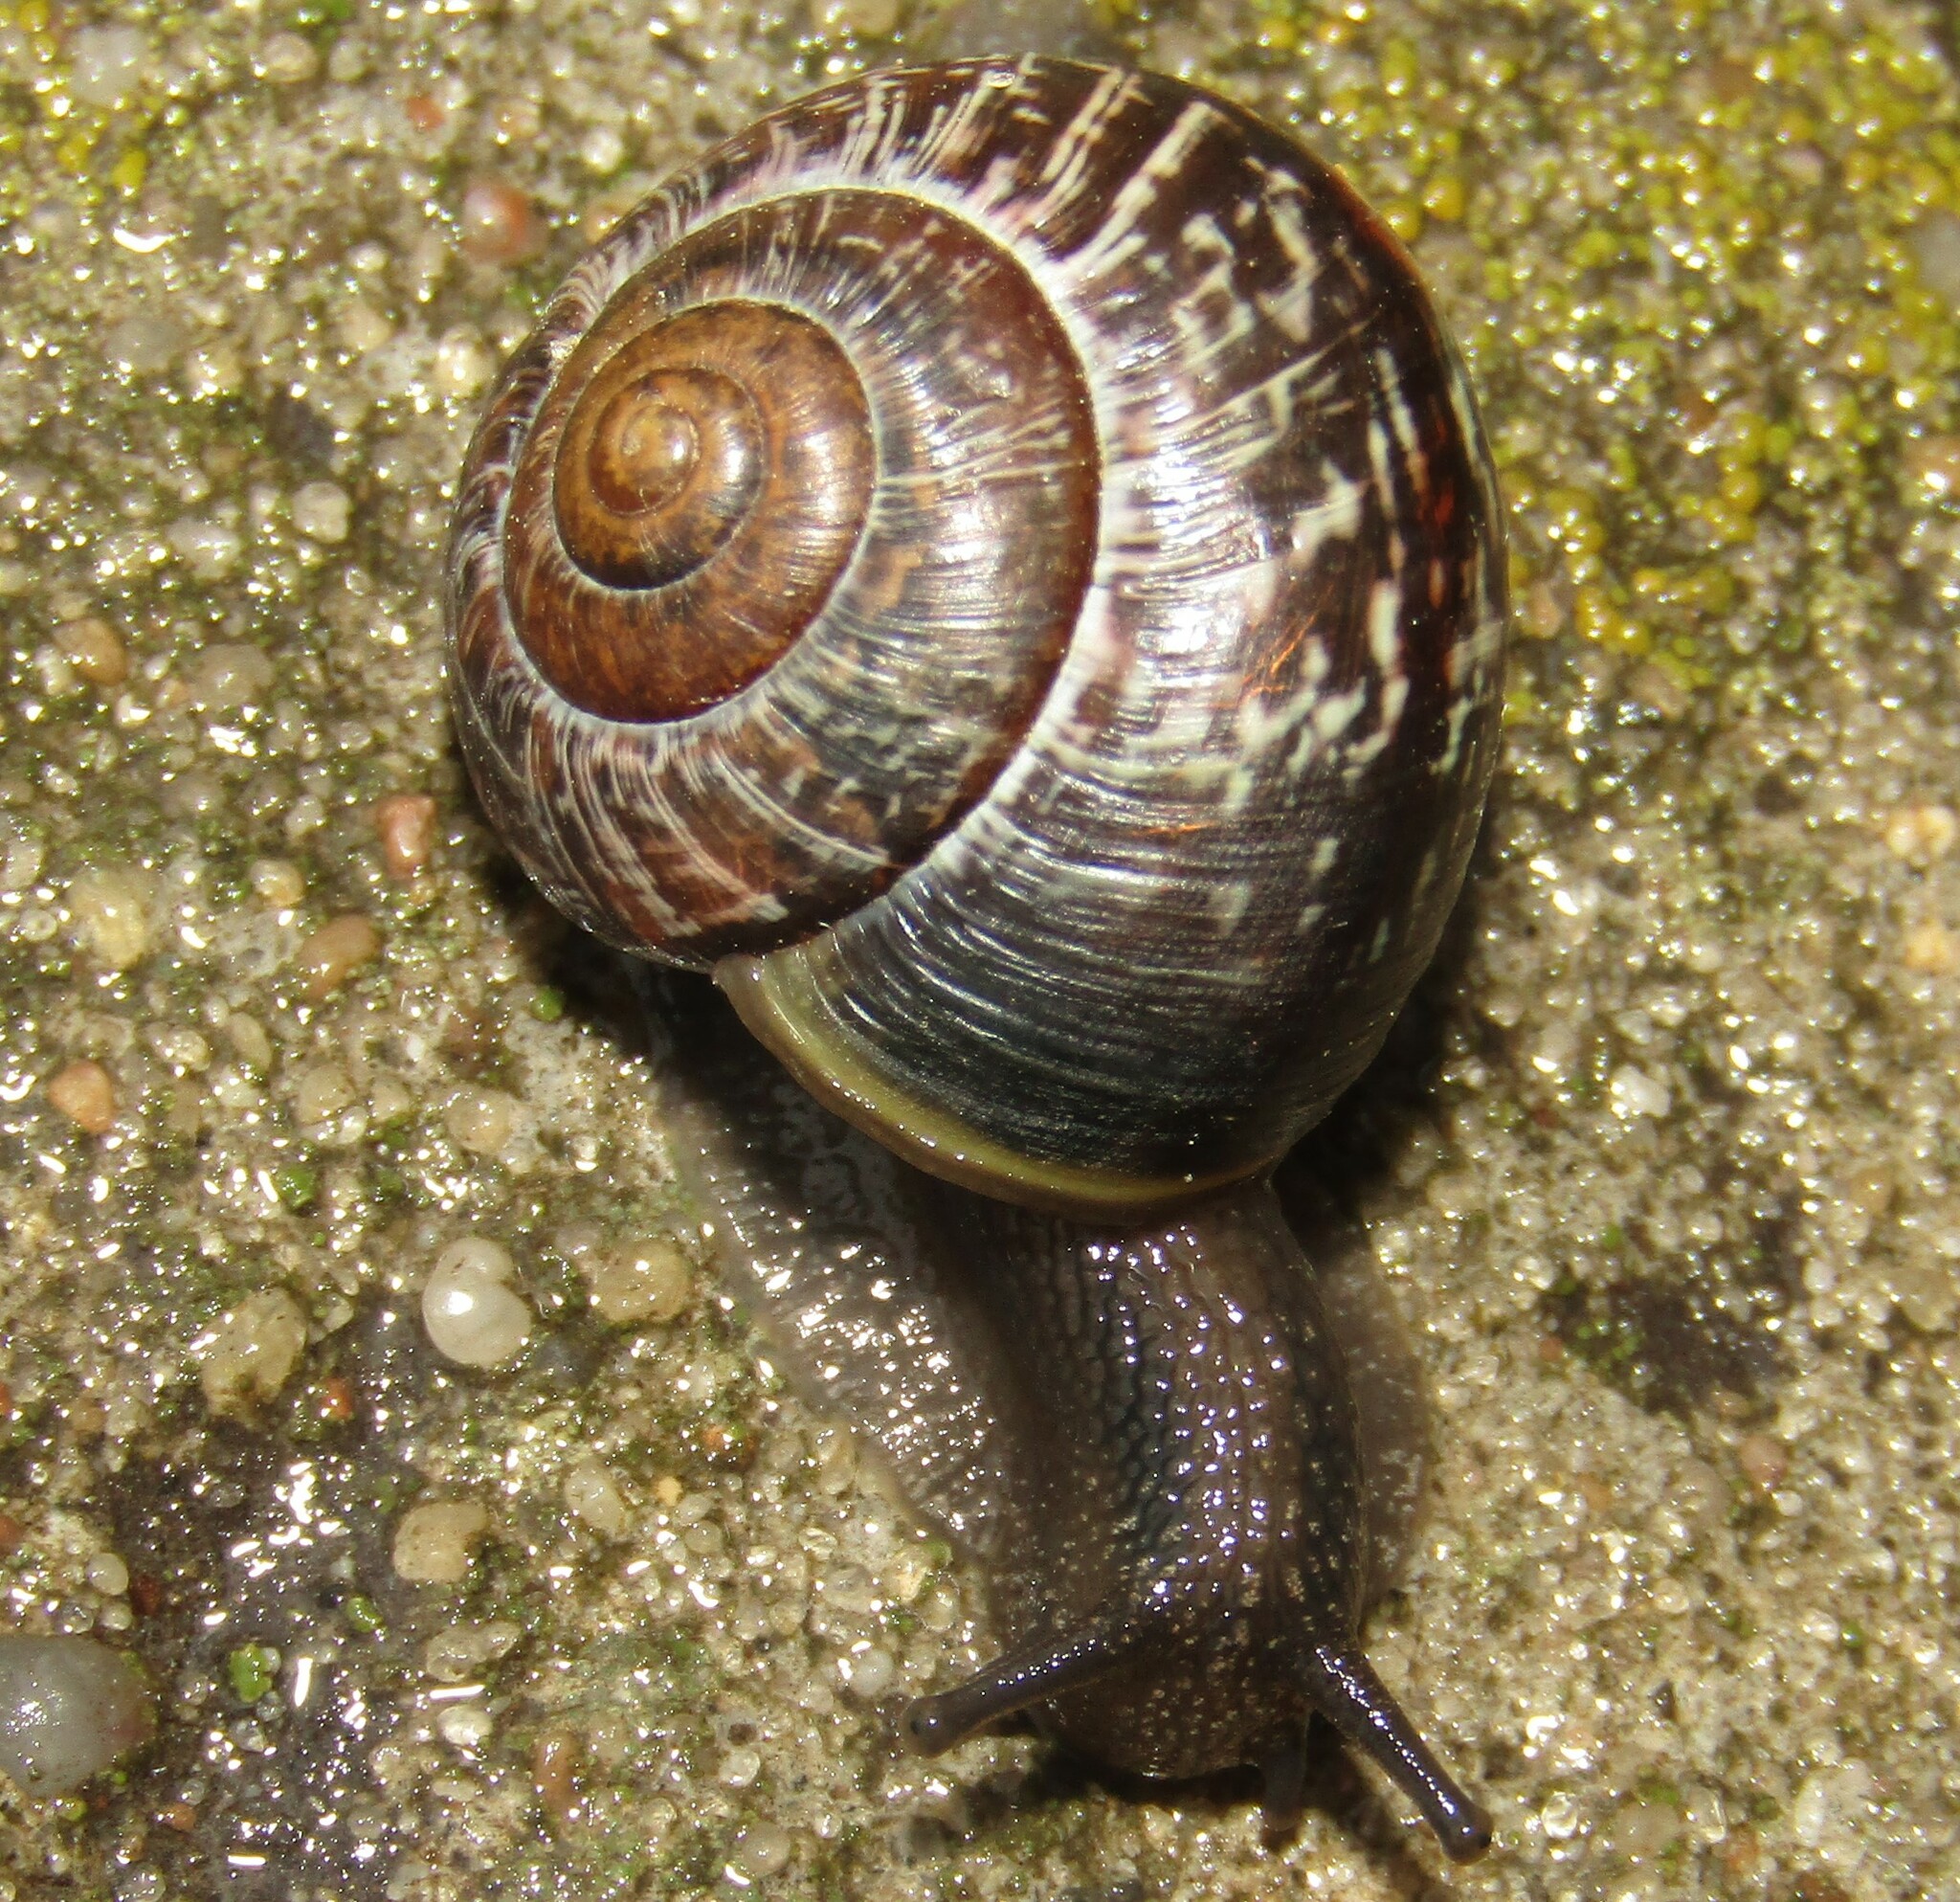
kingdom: Animalia
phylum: Mollusca
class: Gastropoda
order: Stylommatophora
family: Helicidae
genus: Arianta
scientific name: Arianta arbustorum
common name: Copse snail
